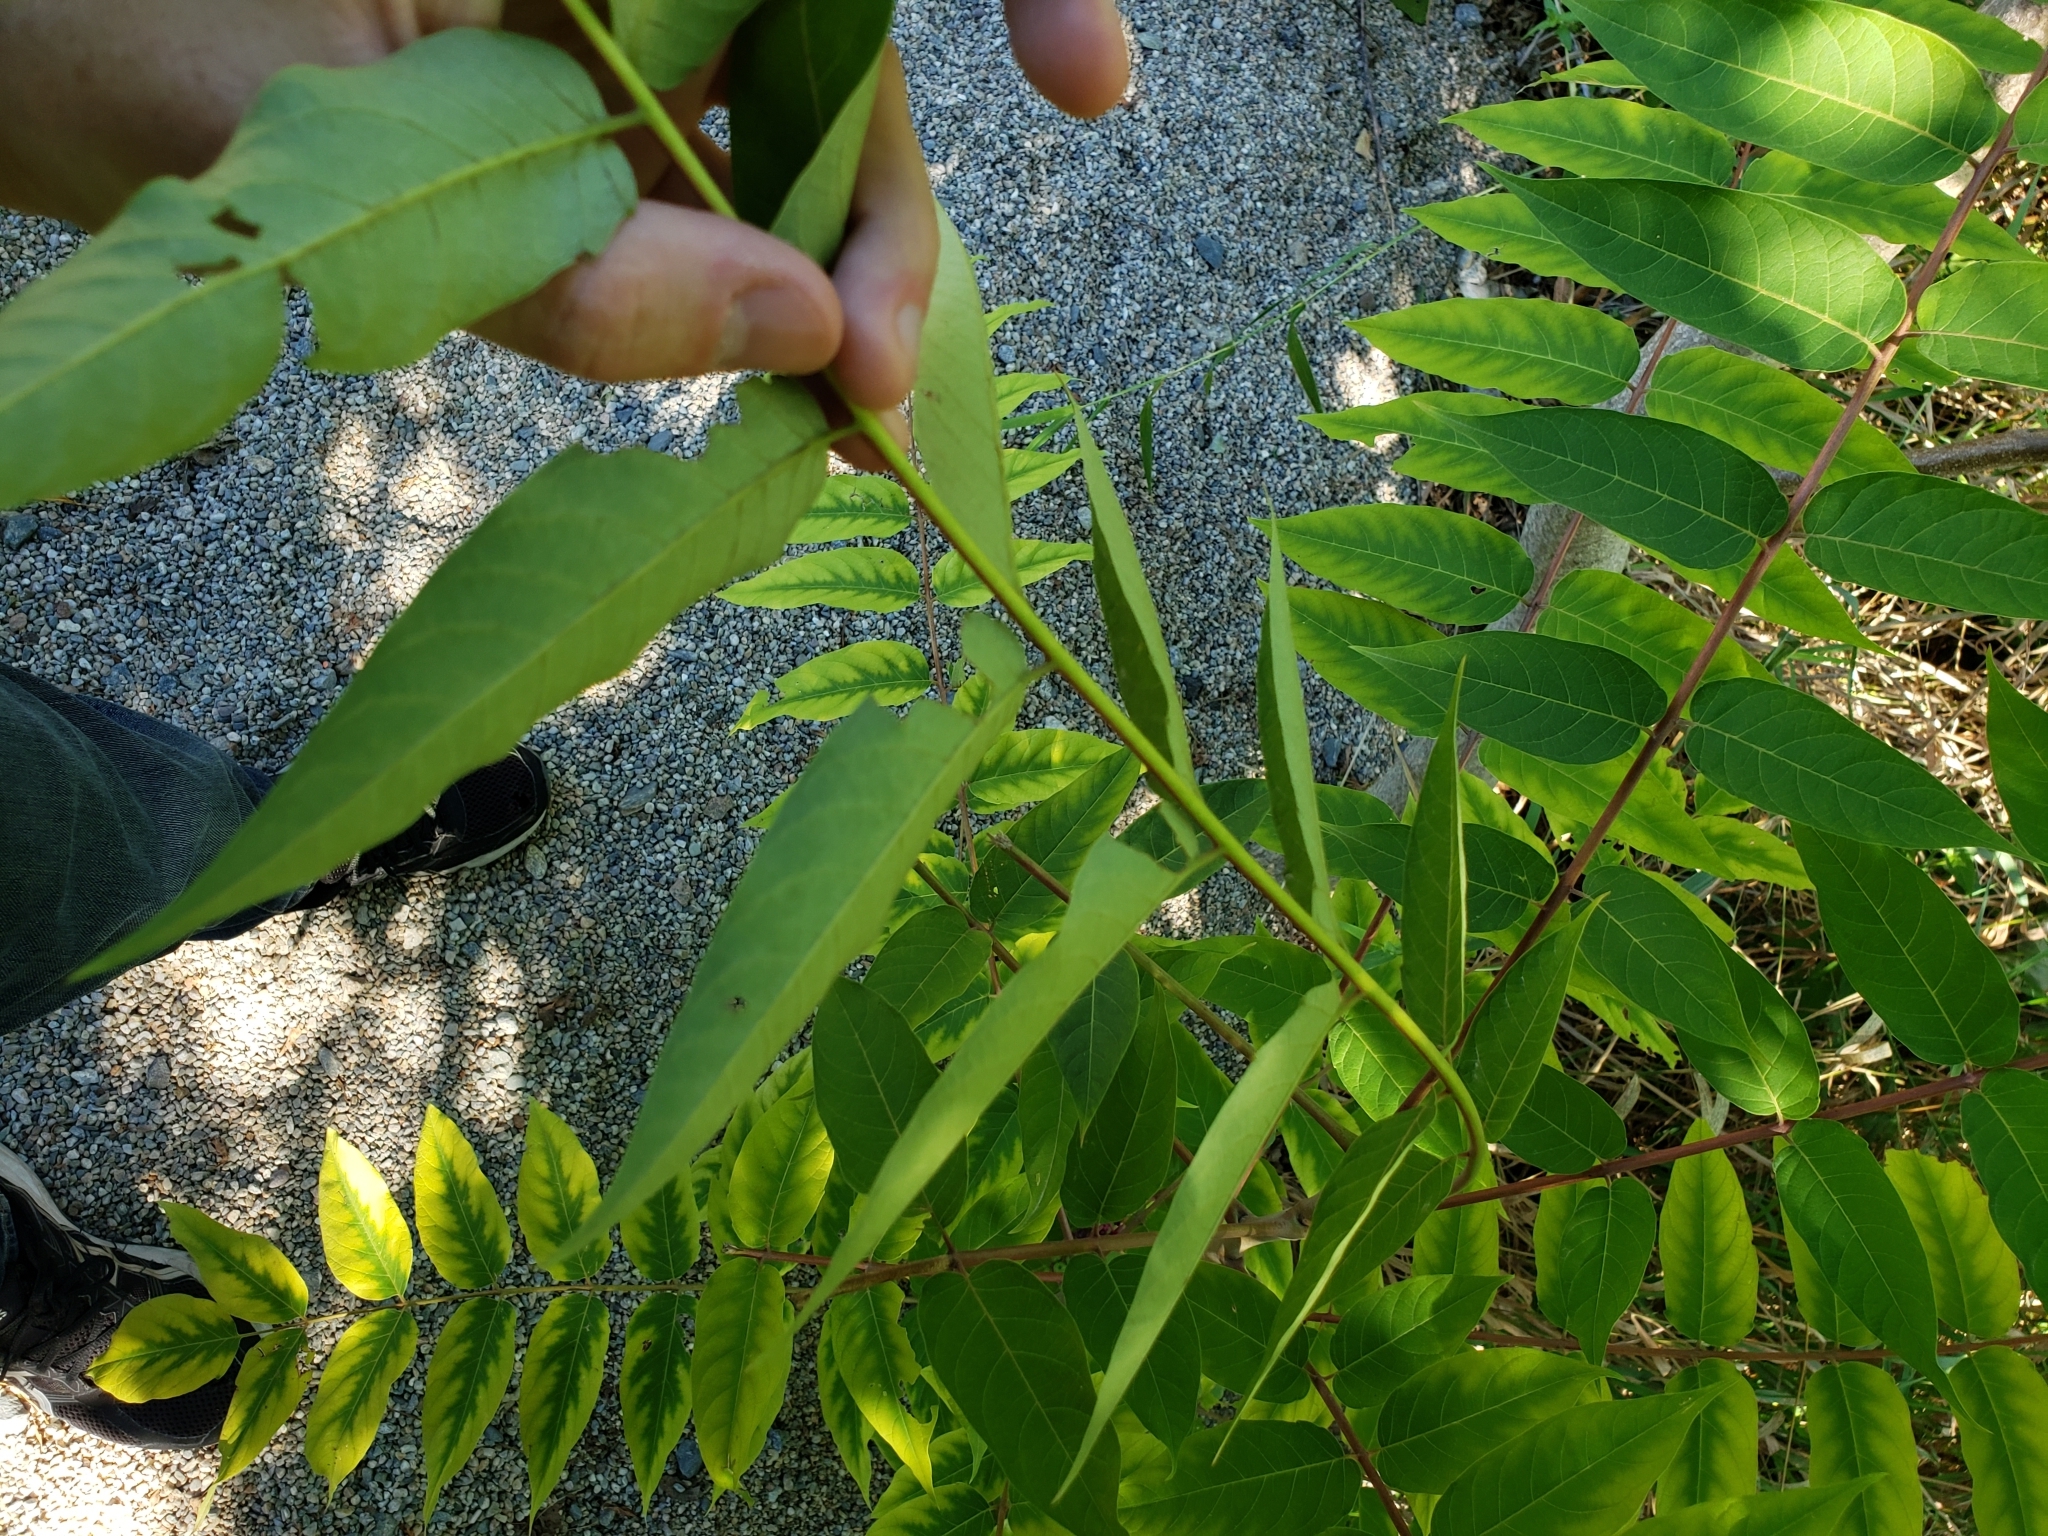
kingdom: Plantae
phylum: Tracheophyta
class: Magnoliopsida
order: Sapindales
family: Simaroubaceae
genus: Ailanthus
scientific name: Ailanthus altissima
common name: Tree-of-heaven
